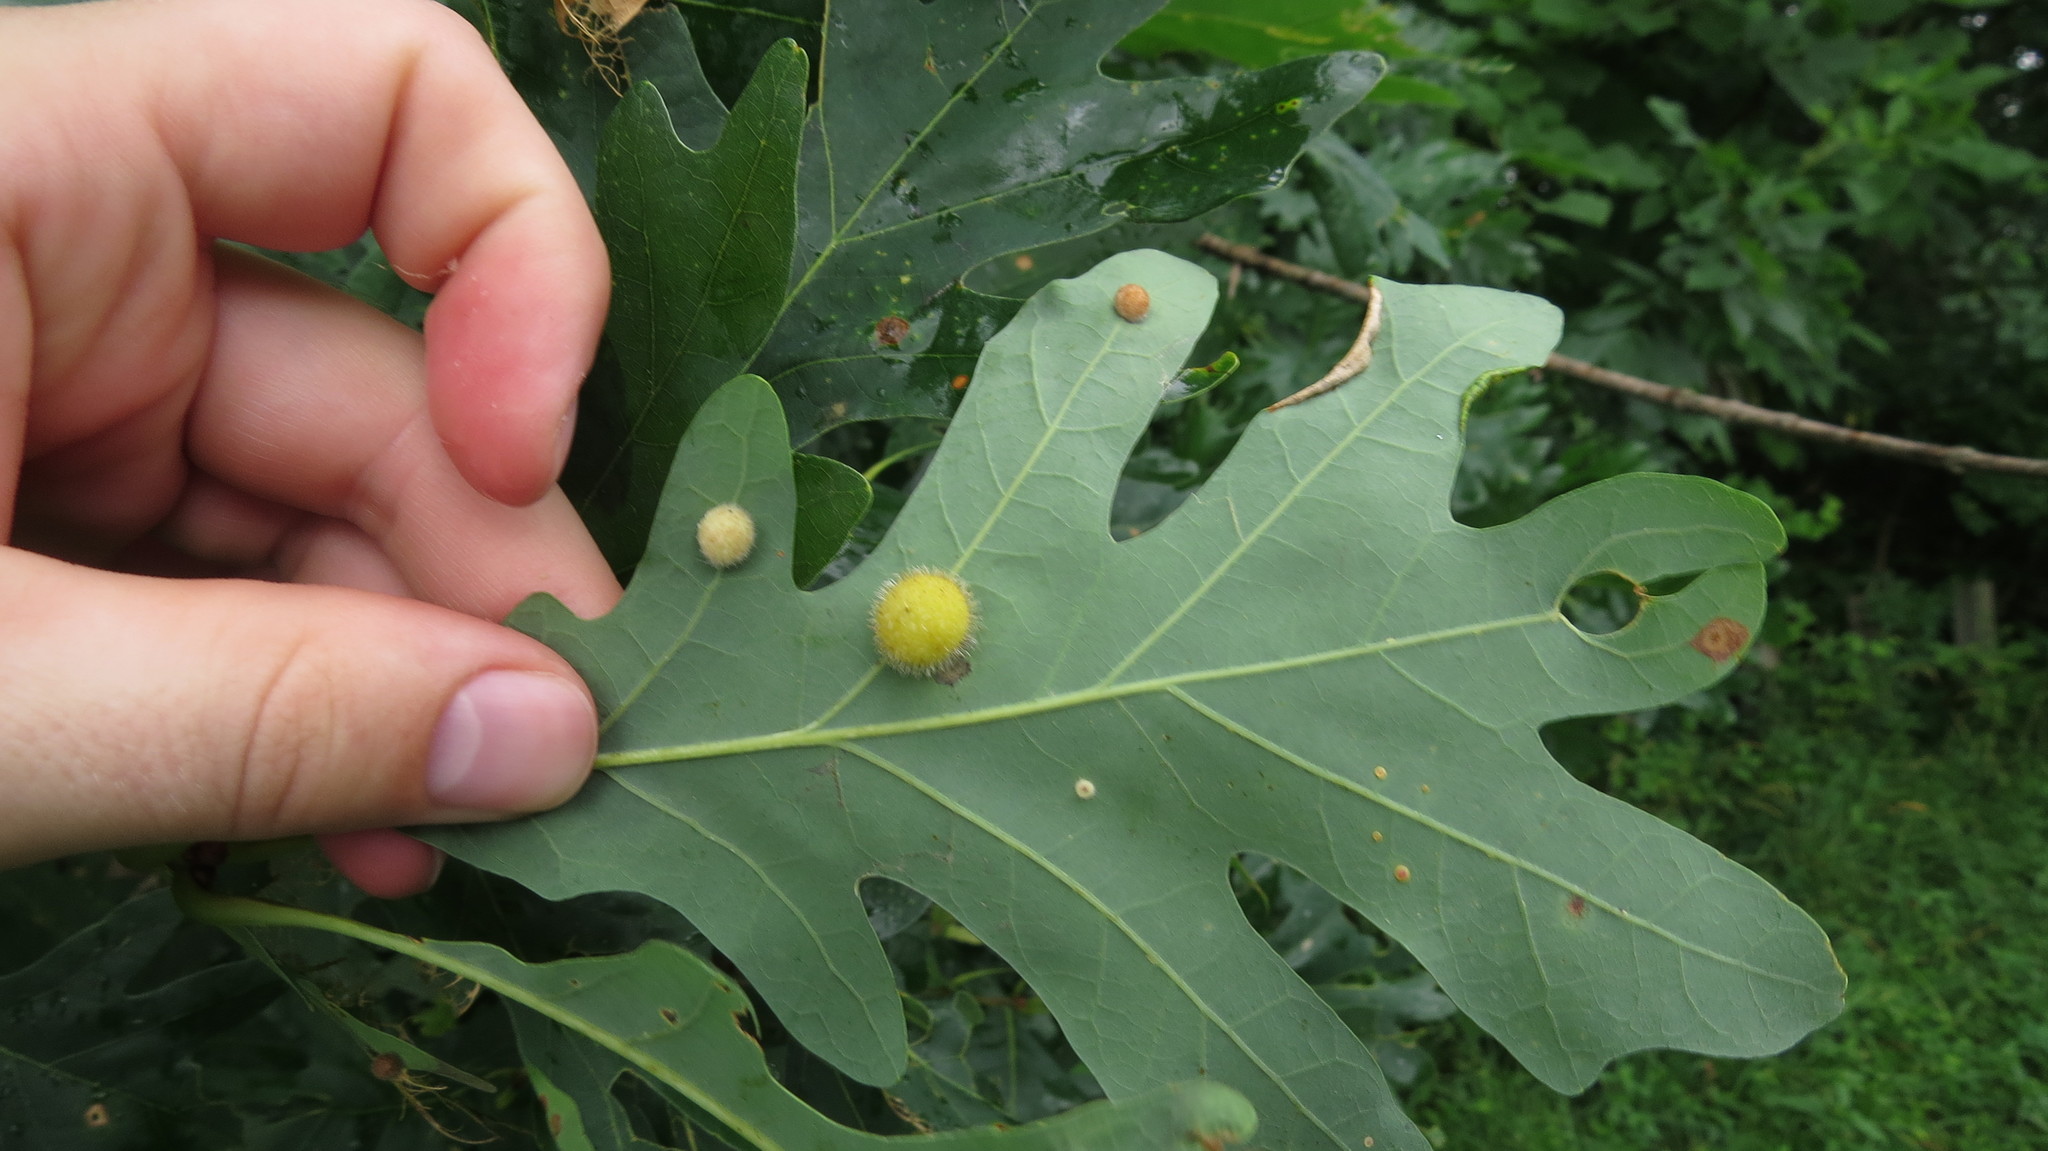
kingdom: Plantae
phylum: Tracheophyta
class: Magnoliopsida
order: Fagales
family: Fagaceae
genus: Quercus
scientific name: Quercus alba
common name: White oak
